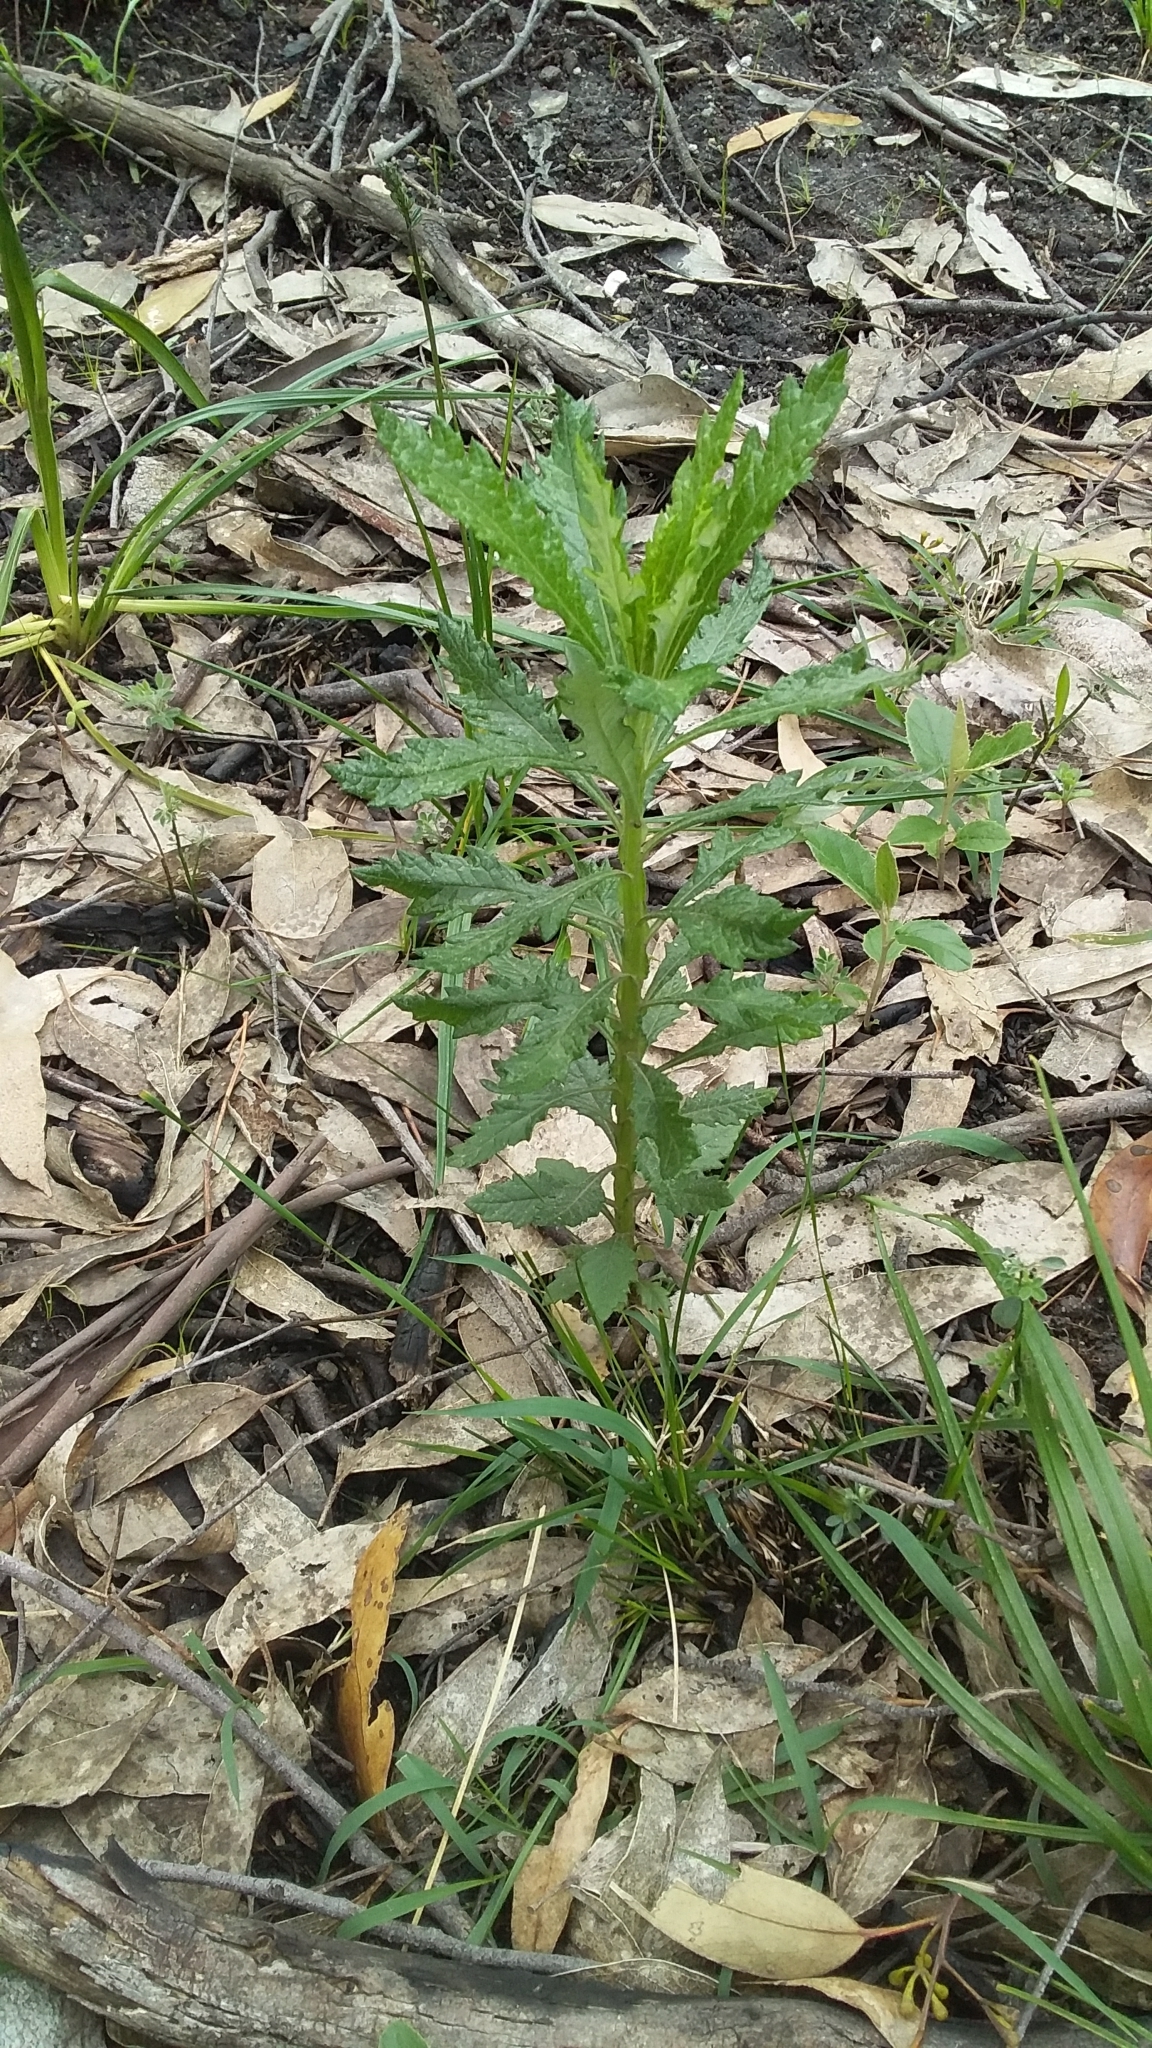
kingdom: Plantae
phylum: Tracheophyta
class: Magnoliopsida
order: Asterales
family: Asteraceae
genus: Senecio
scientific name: Senecio pterophorus
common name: Shoddy ragwort
